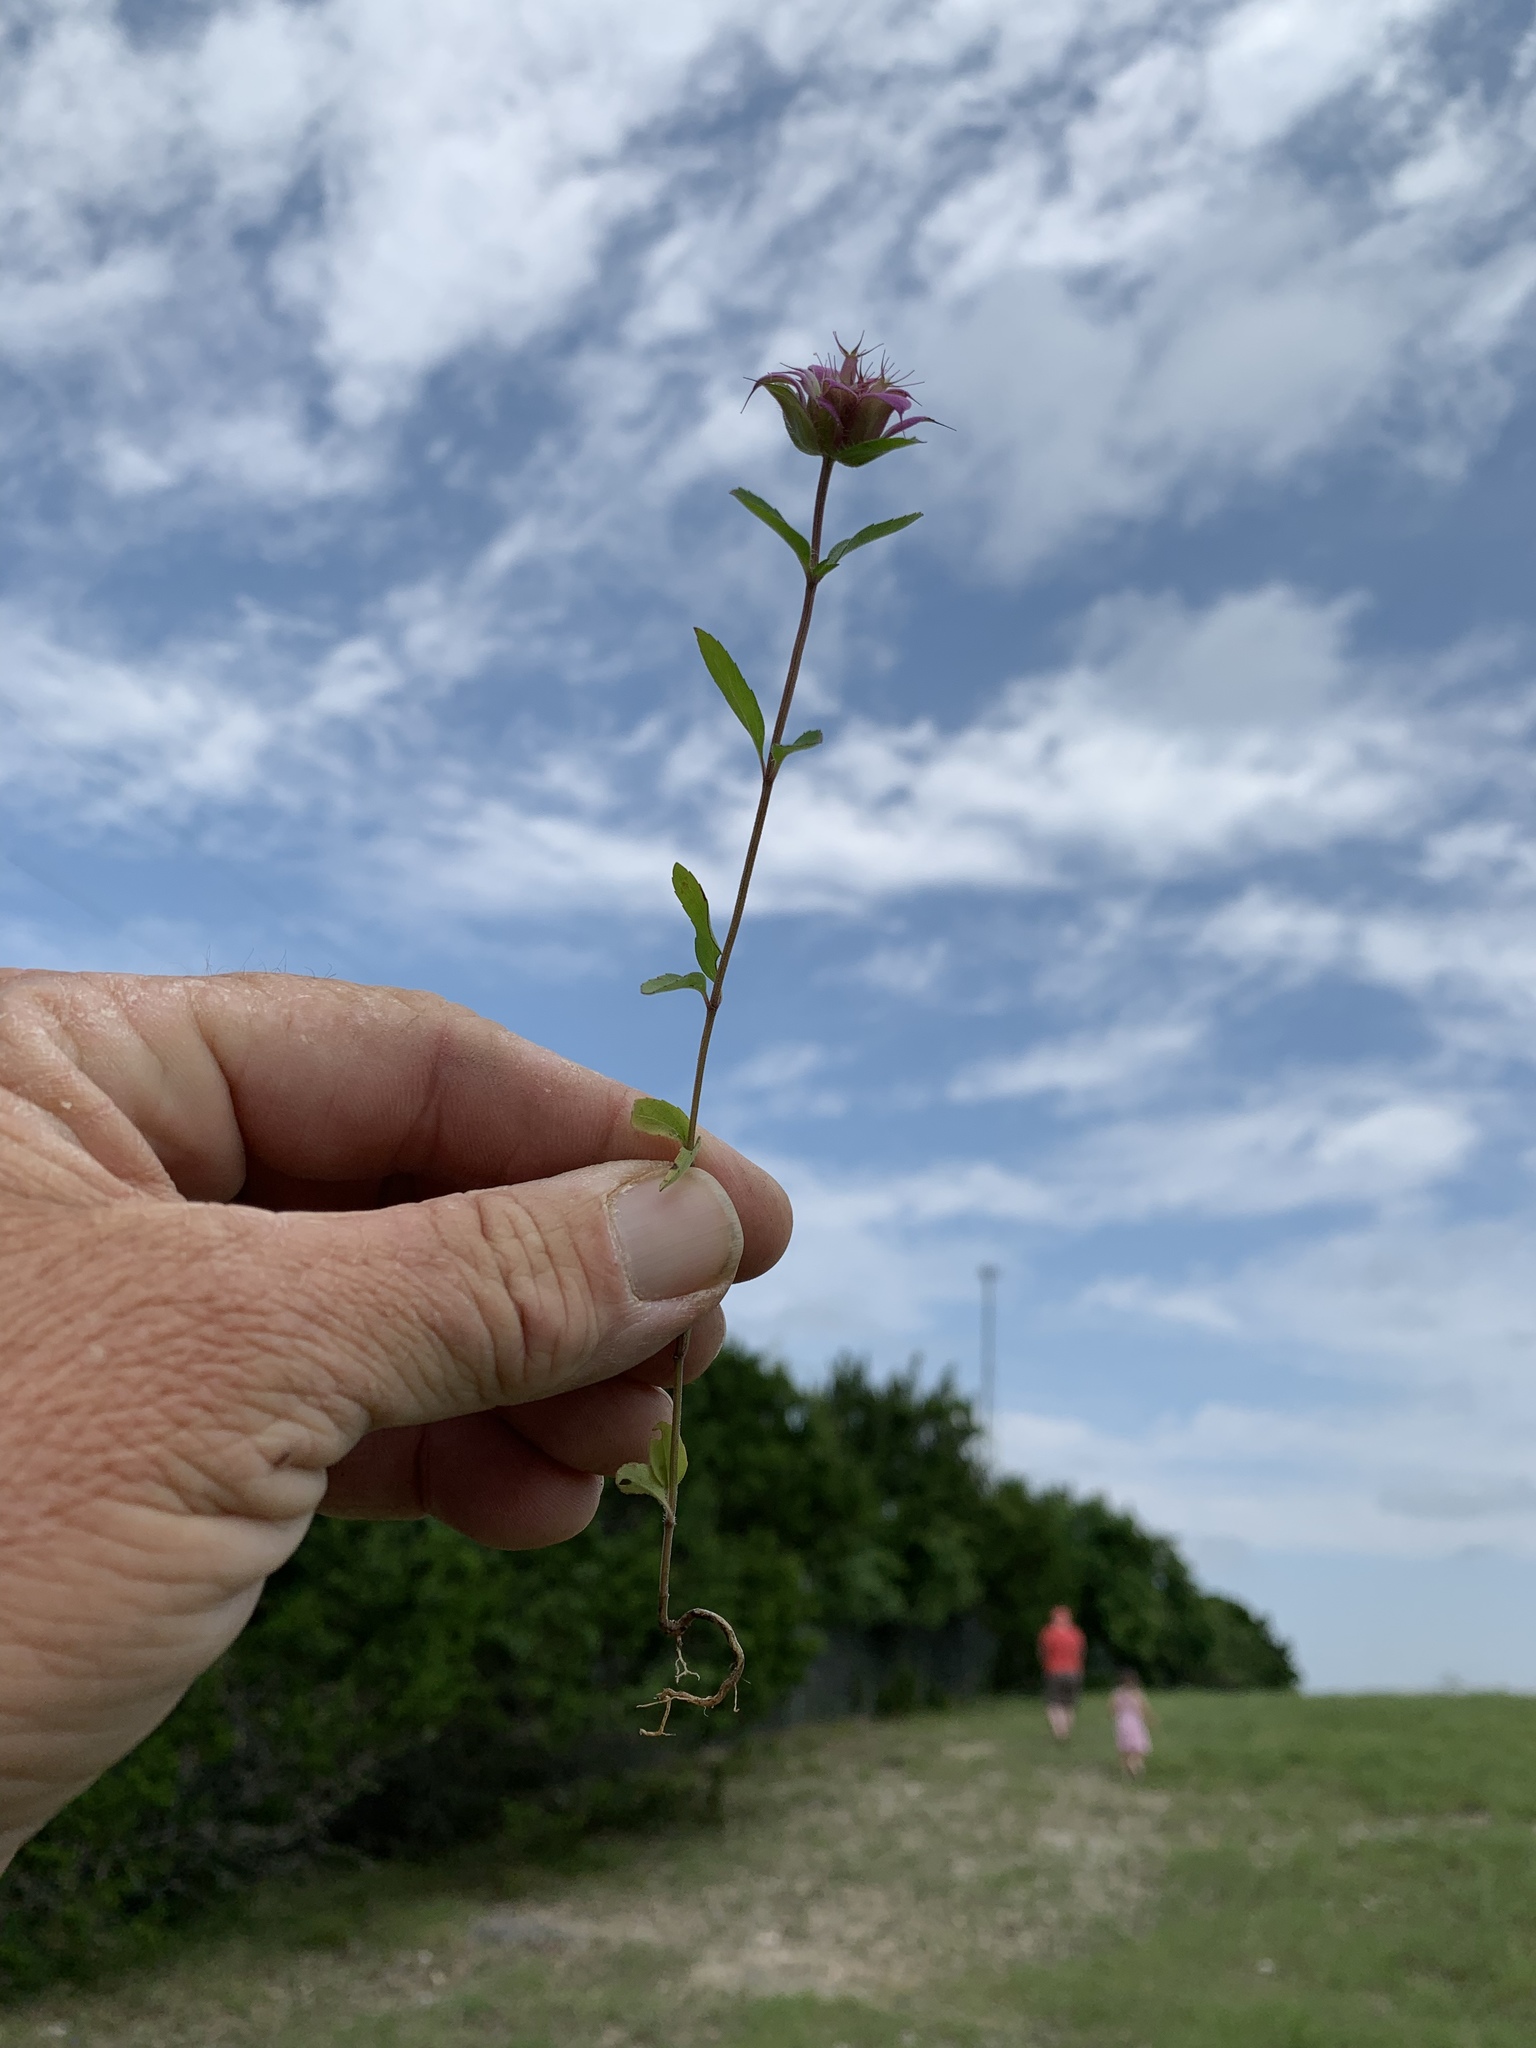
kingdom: Plantae
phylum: Tracheophyta
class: Magnoliopsida
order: Lamiales
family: Lamiaceae
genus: Monarda
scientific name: Monarda citriodora
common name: Lemon beebalm
